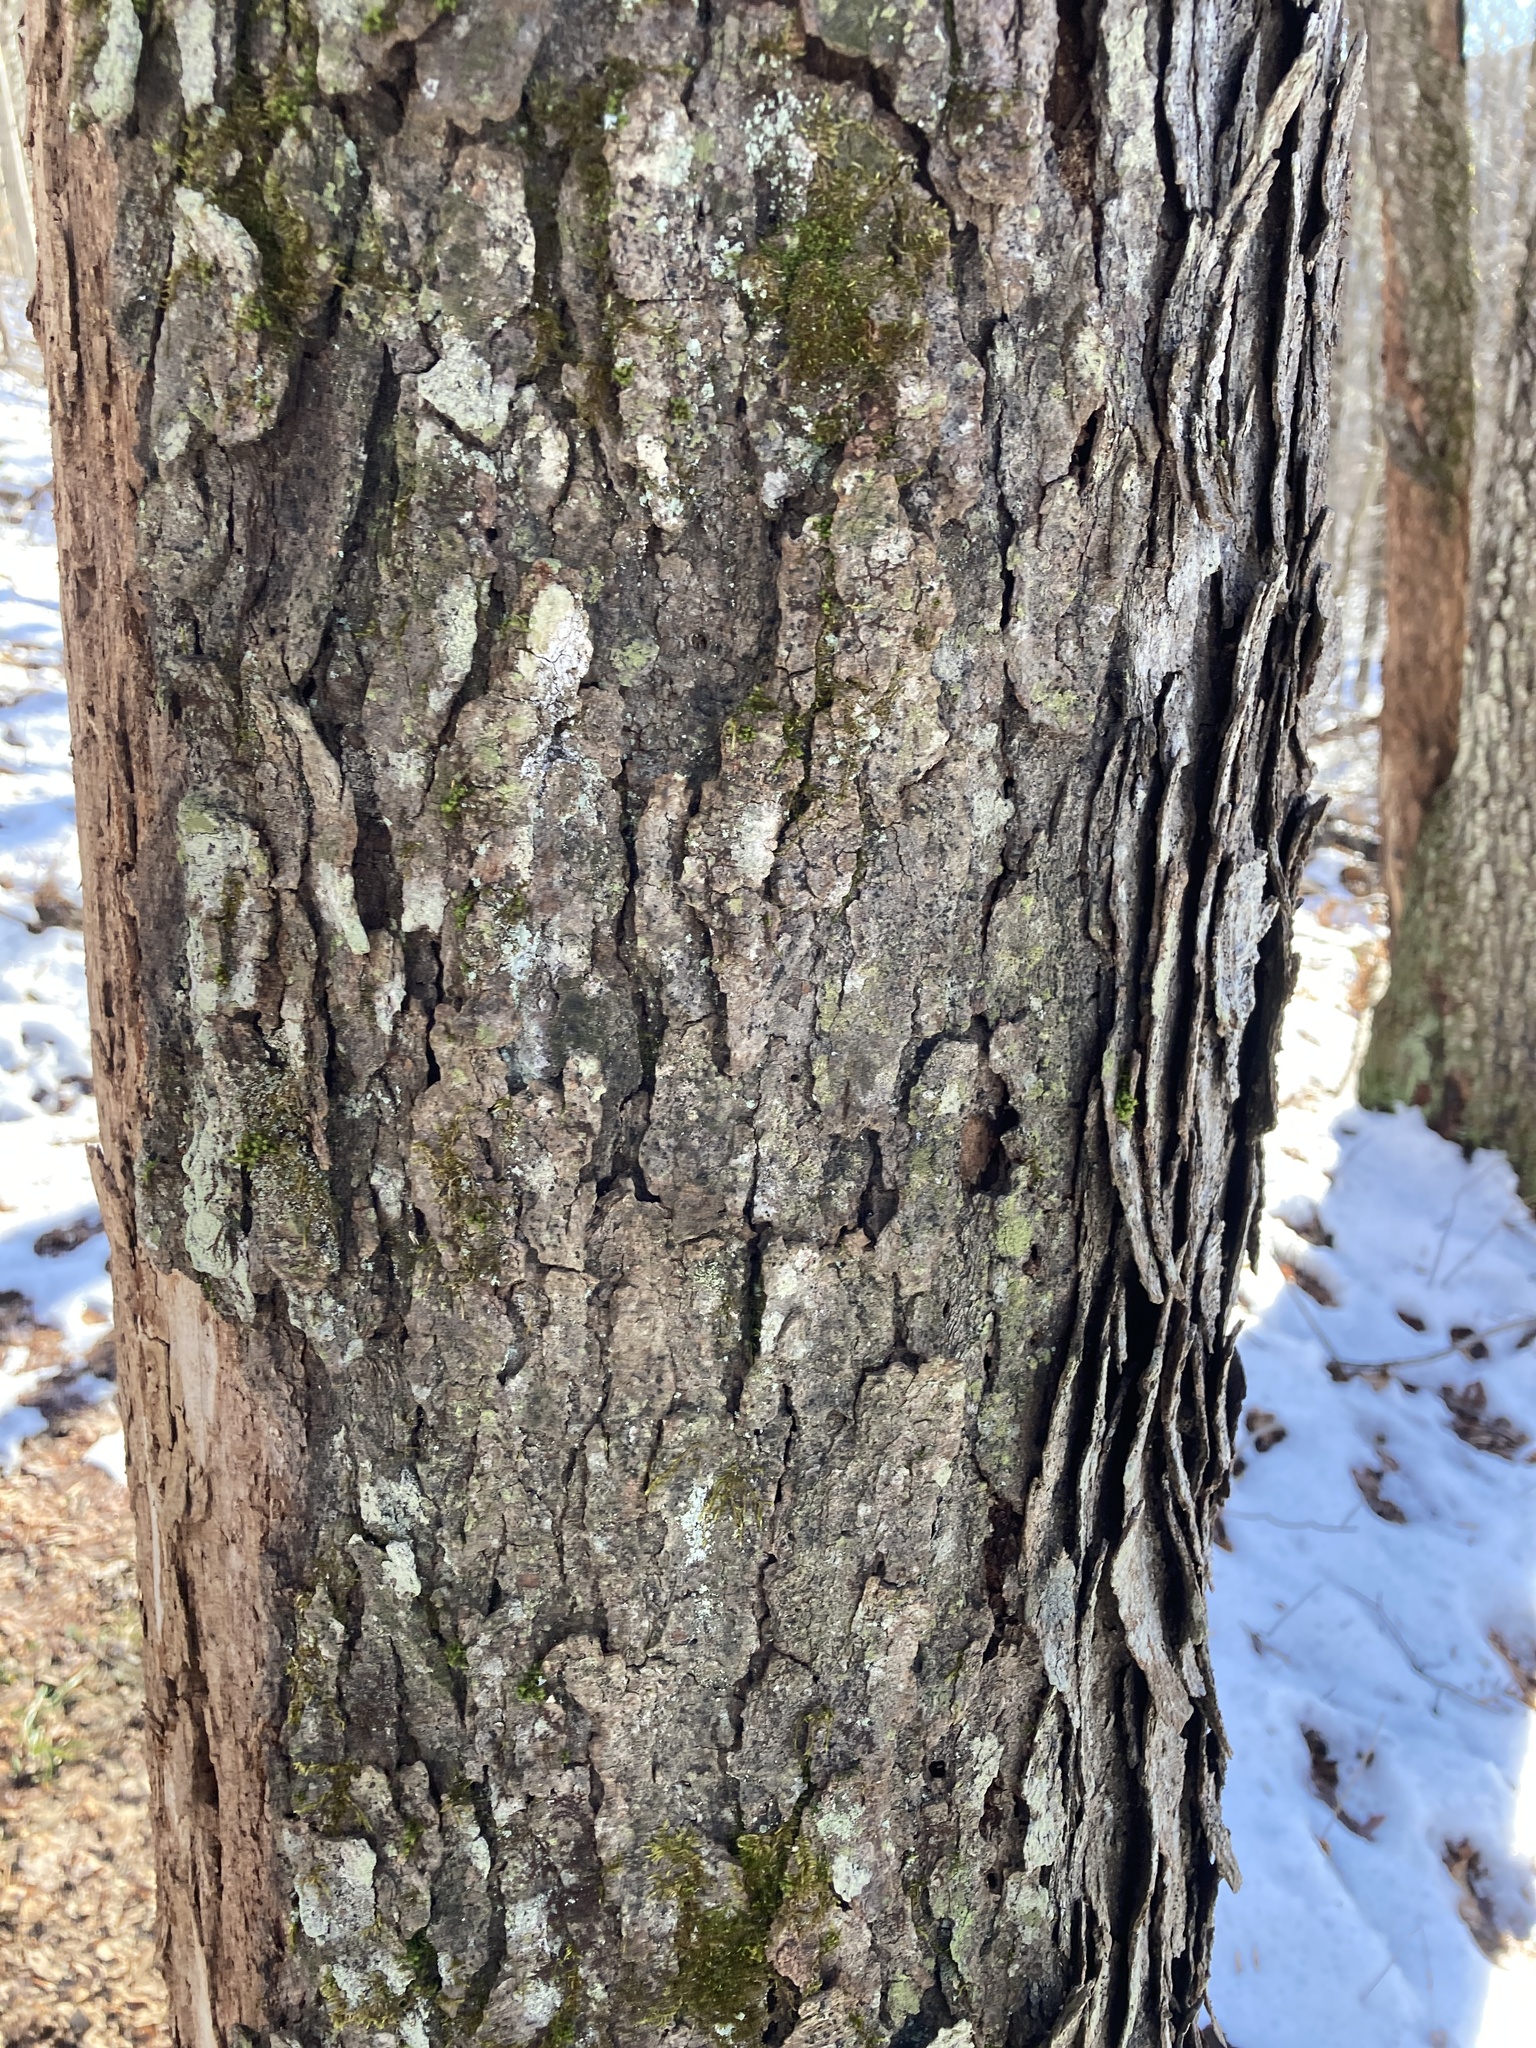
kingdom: Plantae
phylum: Tracheophyta
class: Magnoliopsida
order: Rosales
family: Rosaceae
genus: Prunus
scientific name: Prunus serotina
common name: Black cherry
